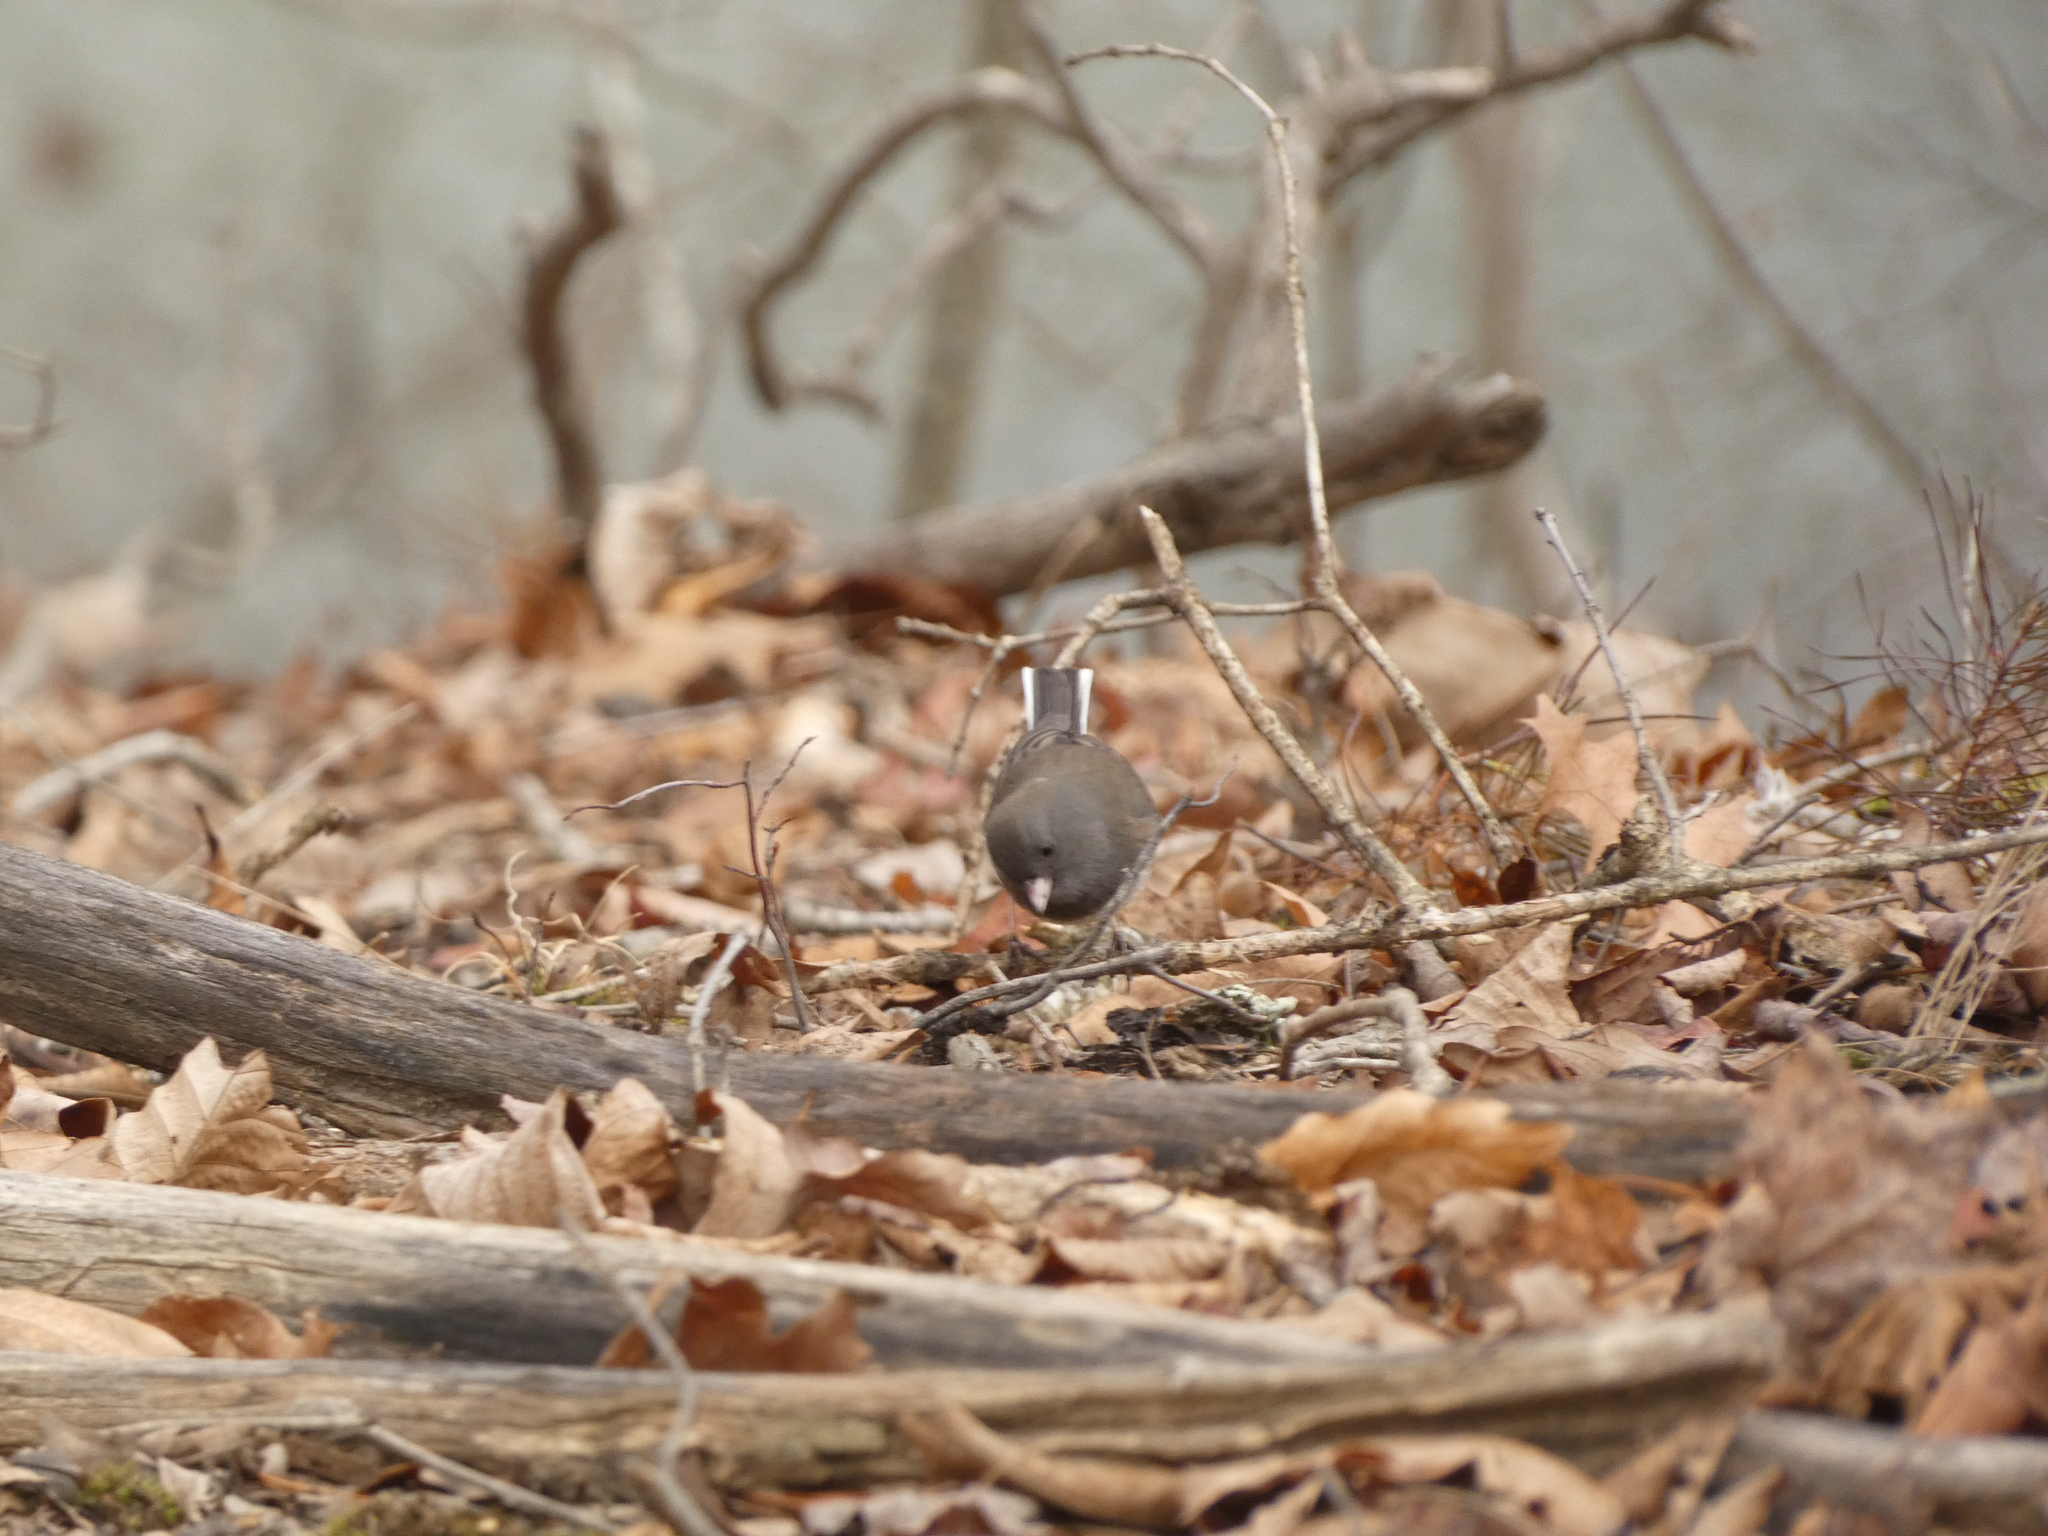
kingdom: Animalia
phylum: Chordata
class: Aves
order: Passeriformes
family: Passerellidae
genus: Junco
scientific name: Junco hyemalis
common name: Dark-eyed junco
